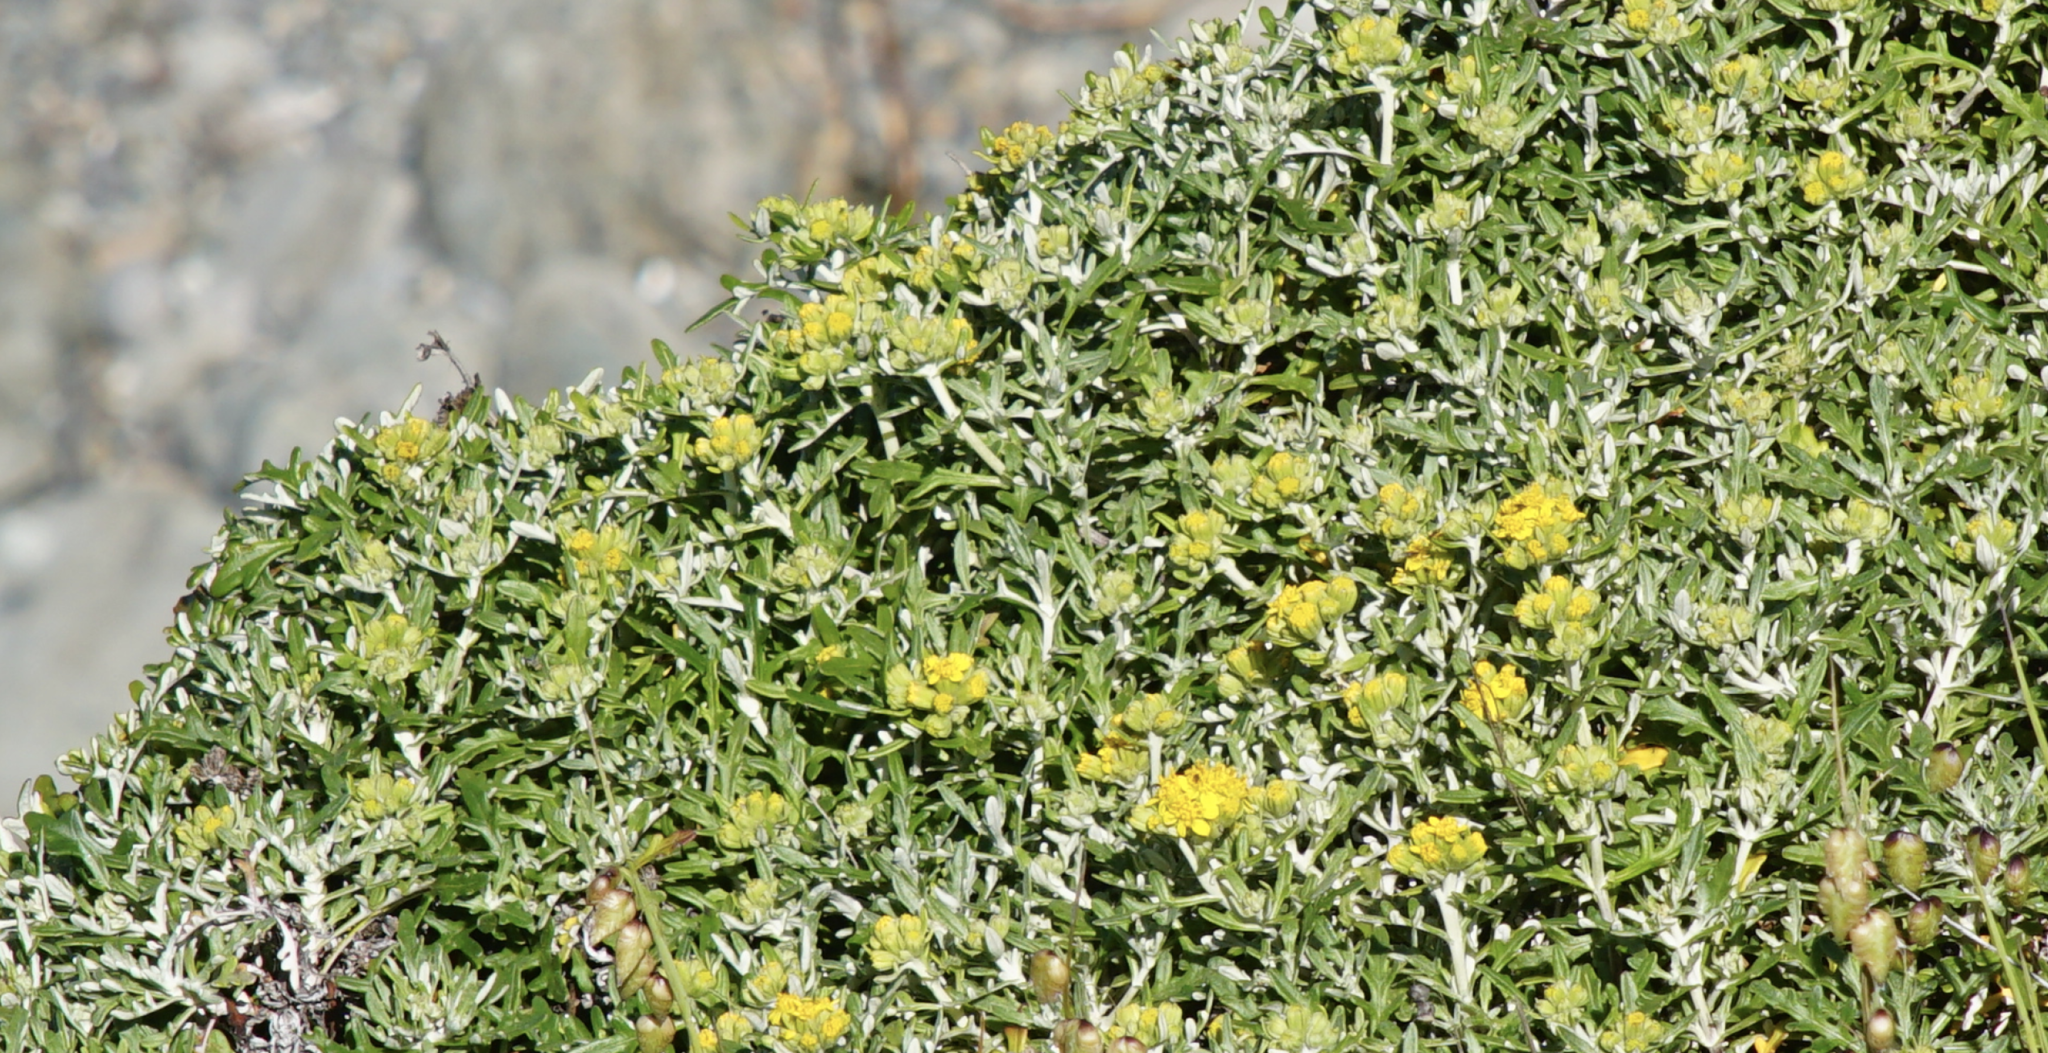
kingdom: Plantae
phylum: Tracheophyta
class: Magnoliopsida
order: Asterales
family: Asteraceae
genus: Eriophyllum
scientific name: Eriophyllum staechadifolium
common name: Lizardtail
